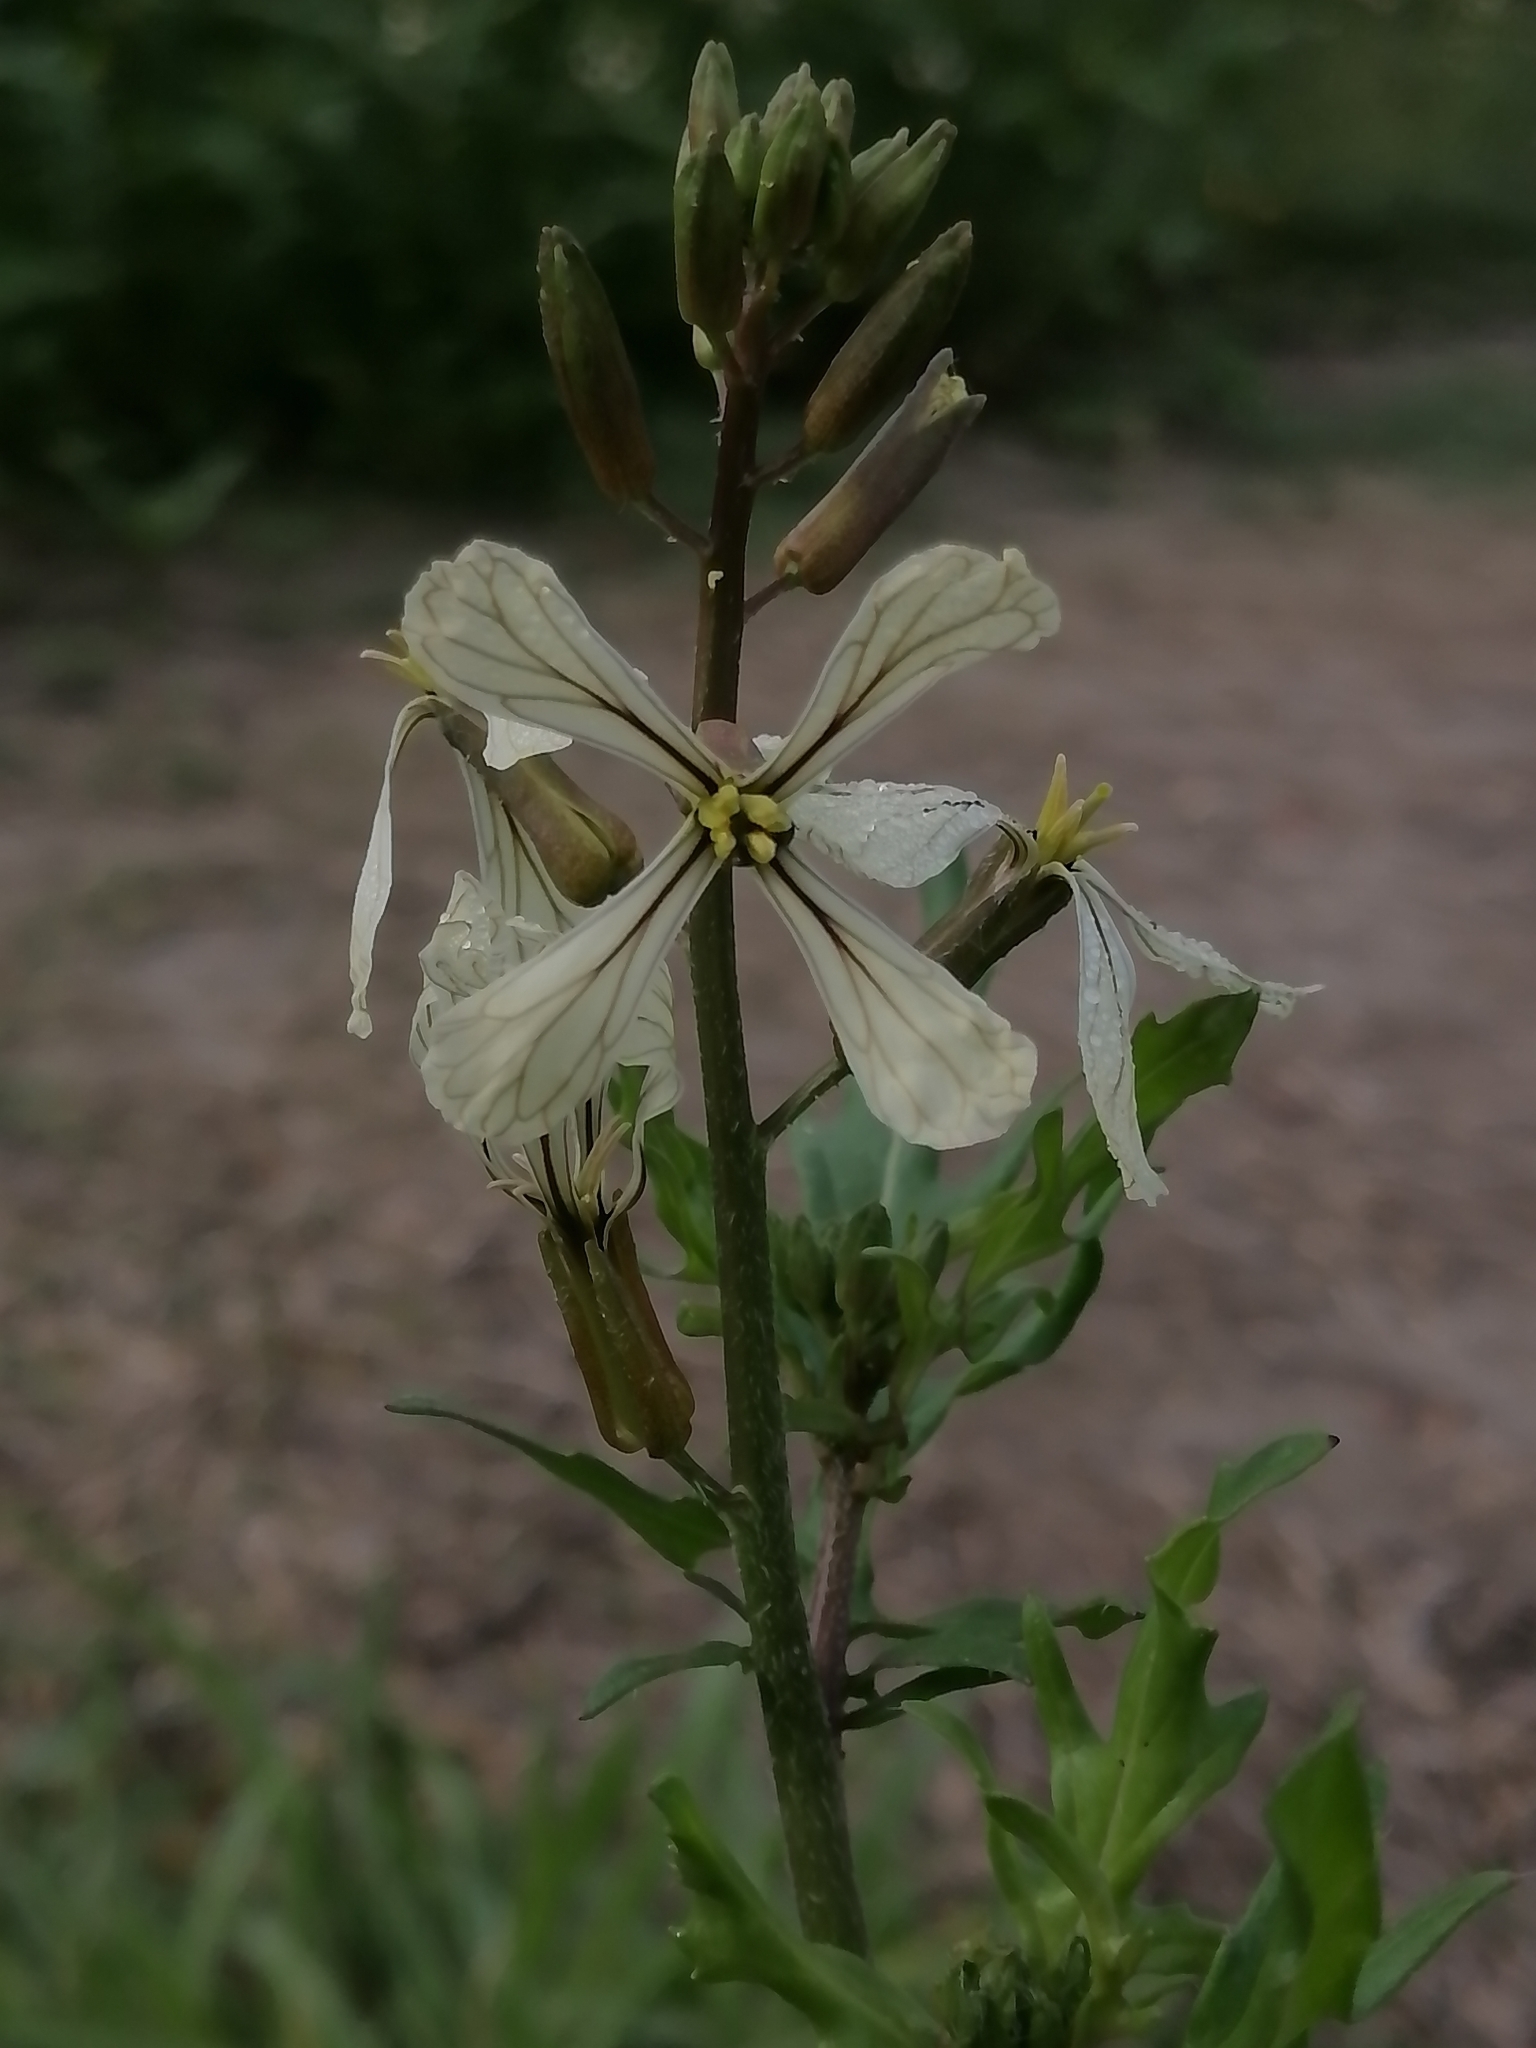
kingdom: Plantae
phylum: Tracheophyta
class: Magnoliopsida
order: Brassicales
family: Brassicaceae
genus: Eruca
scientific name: Eruca vesicaria
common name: Garden rocket
